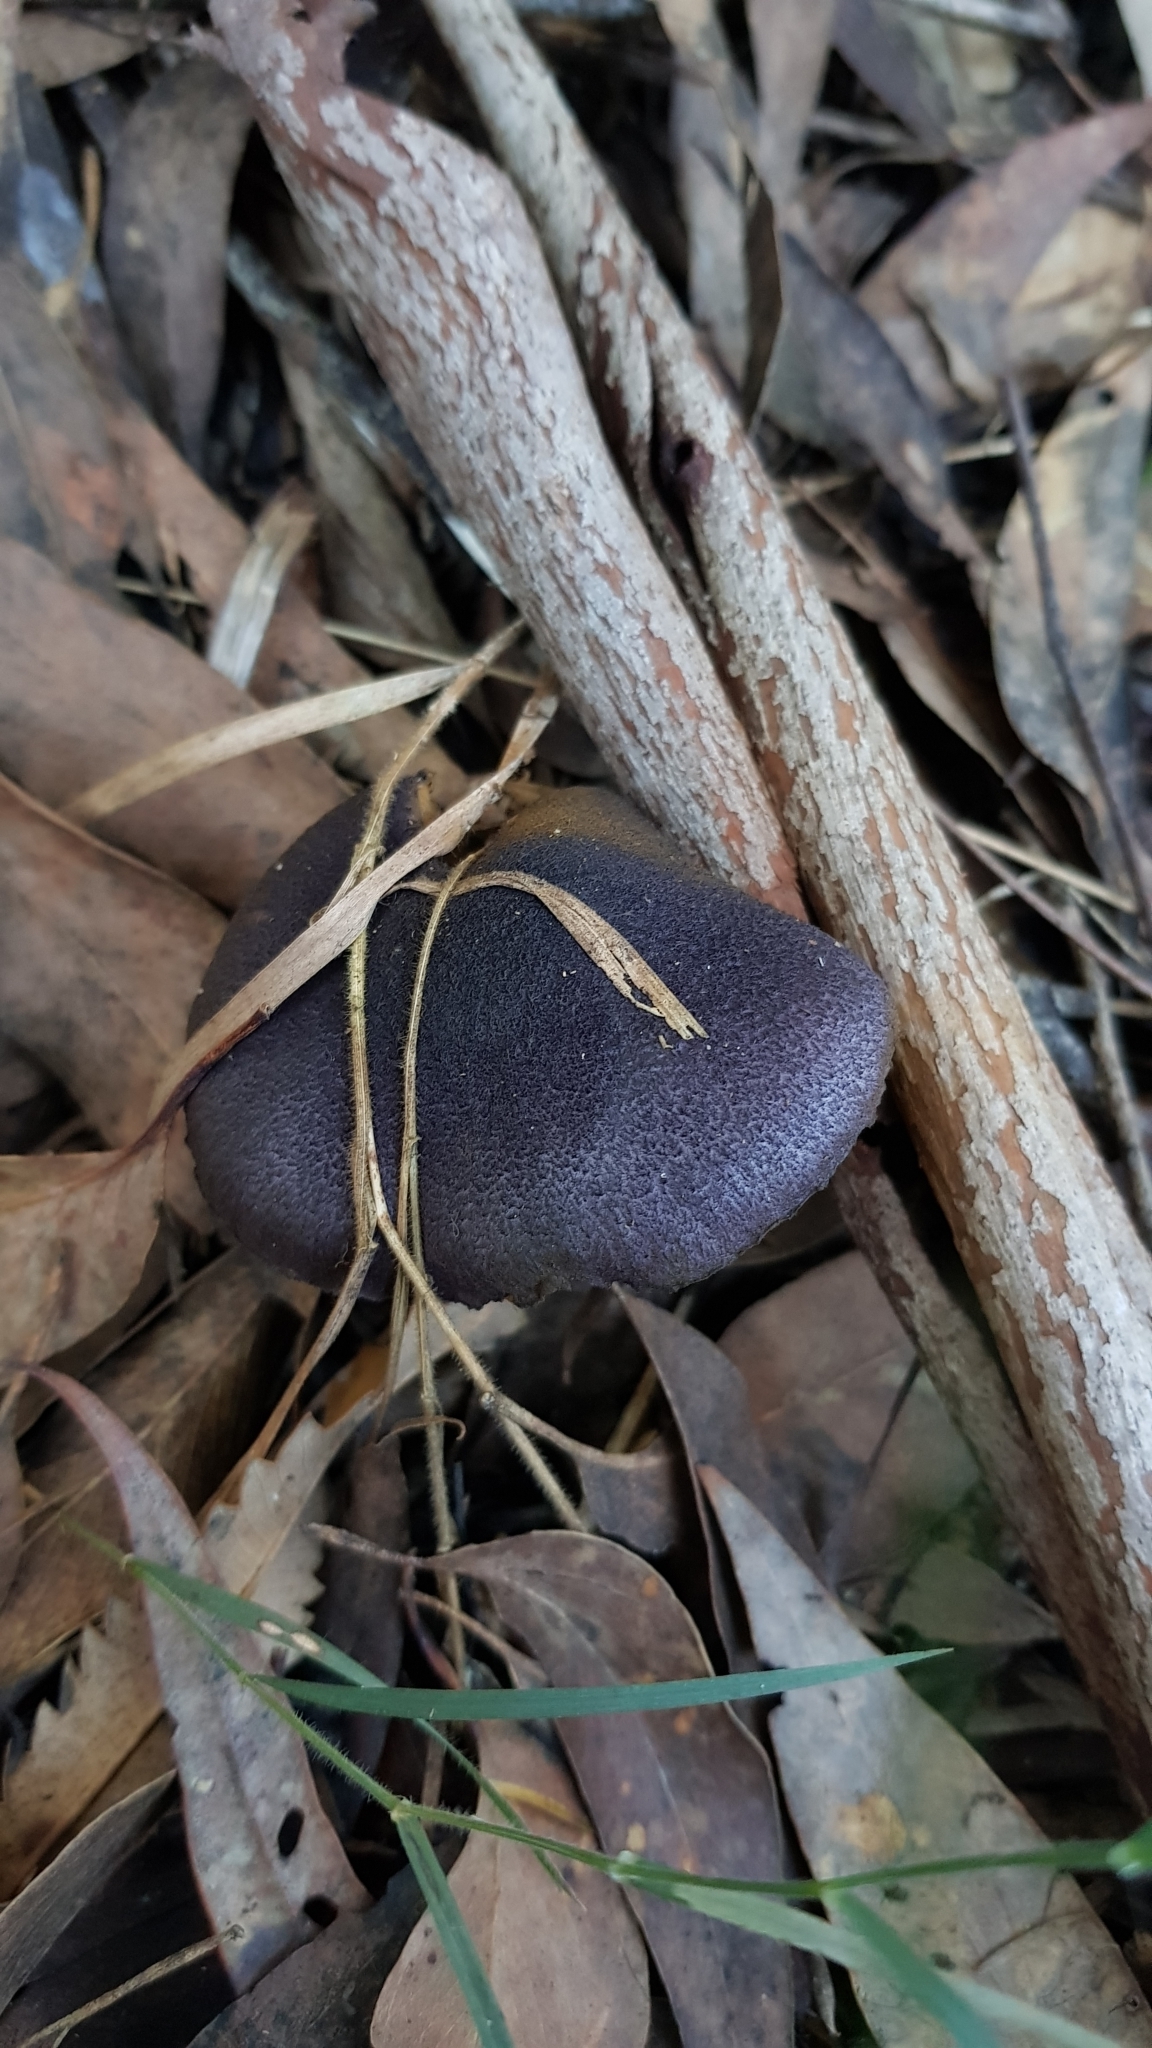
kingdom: Fungi
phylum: Basidiomycota
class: Agaricomycetes
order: Agaricales
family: Cortinariaceae
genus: Cortinarius
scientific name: Cortinarius kioloensis
